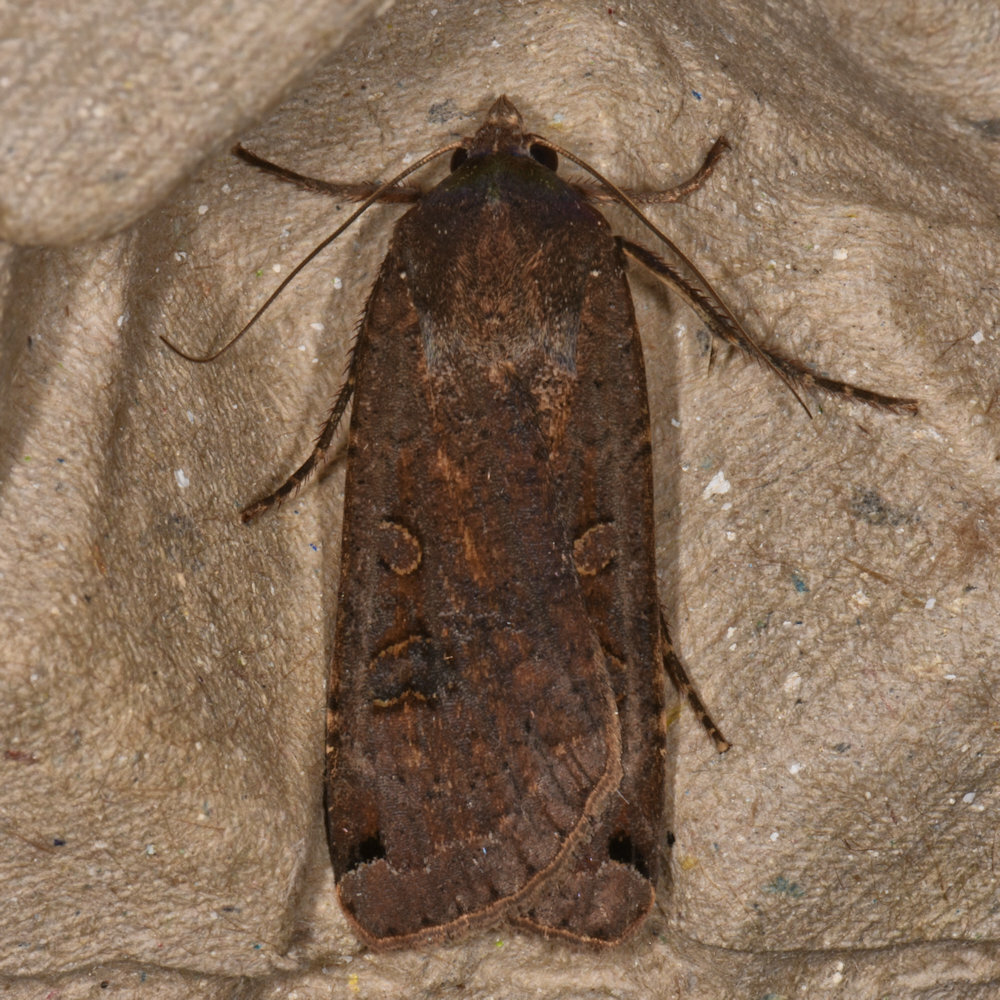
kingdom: Animalia
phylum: Arthropoda
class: Insecta
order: Lepidoptera
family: Noctuidae
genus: Noctua
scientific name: Noctua pronuba
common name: Large yellow underwing
